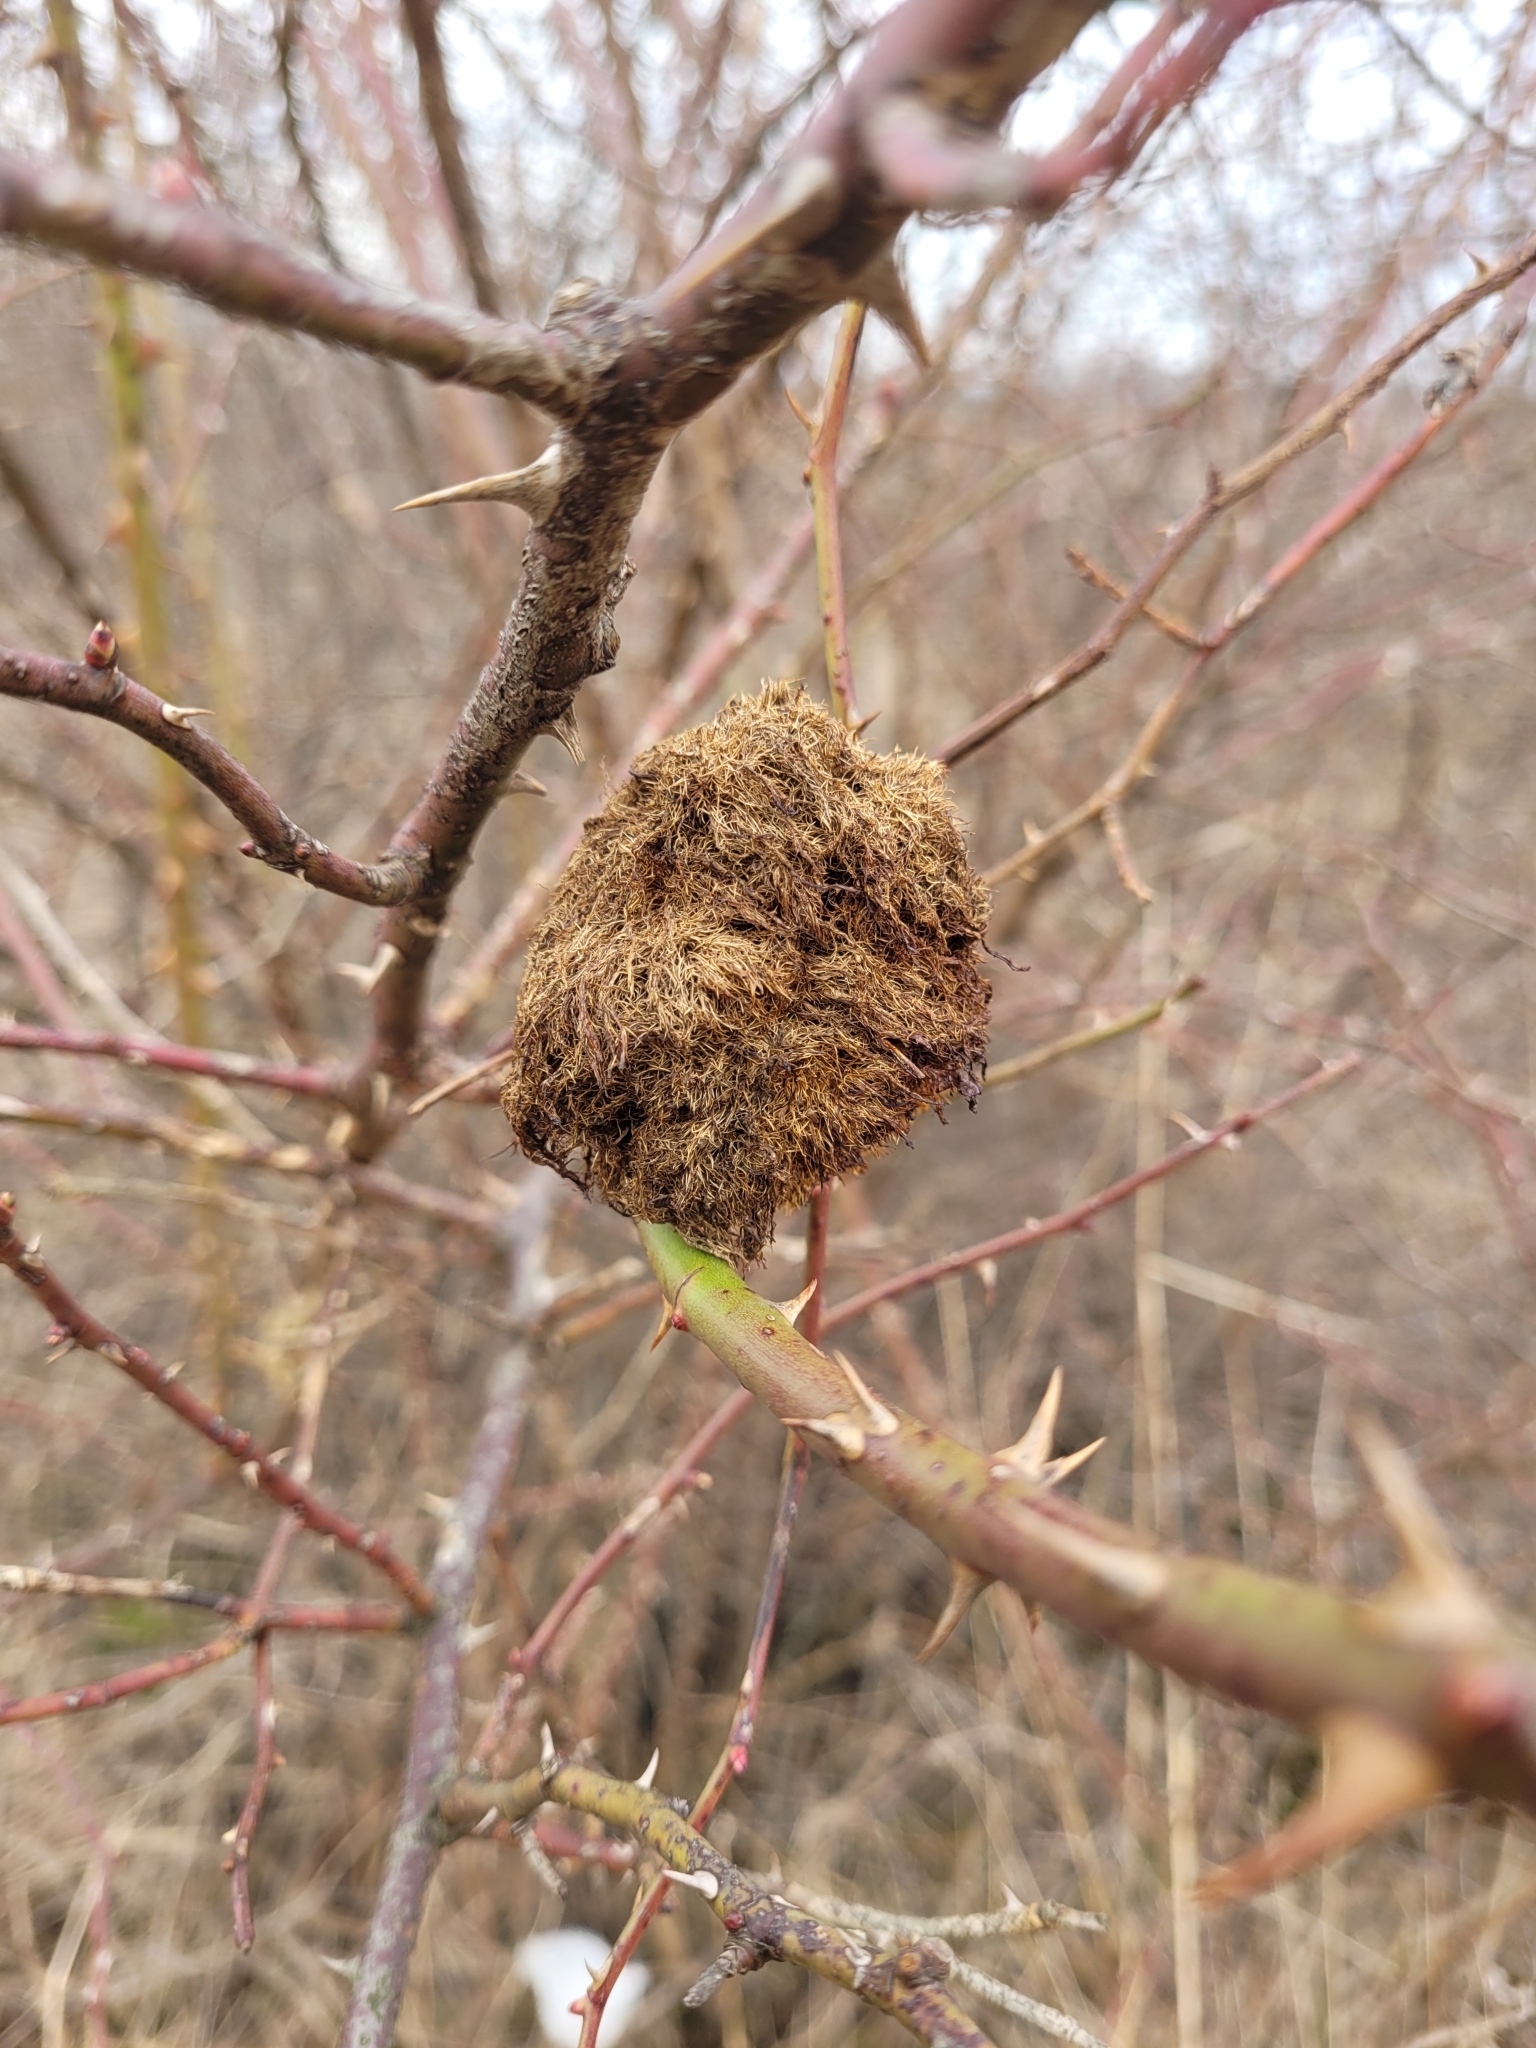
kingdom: Animalia
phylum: Arthropoda
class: Insecta
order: Hymenoptera
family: Cynipidae
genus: Diplolepis
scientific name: Diplolepis rosae
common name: Bedeguar gall
